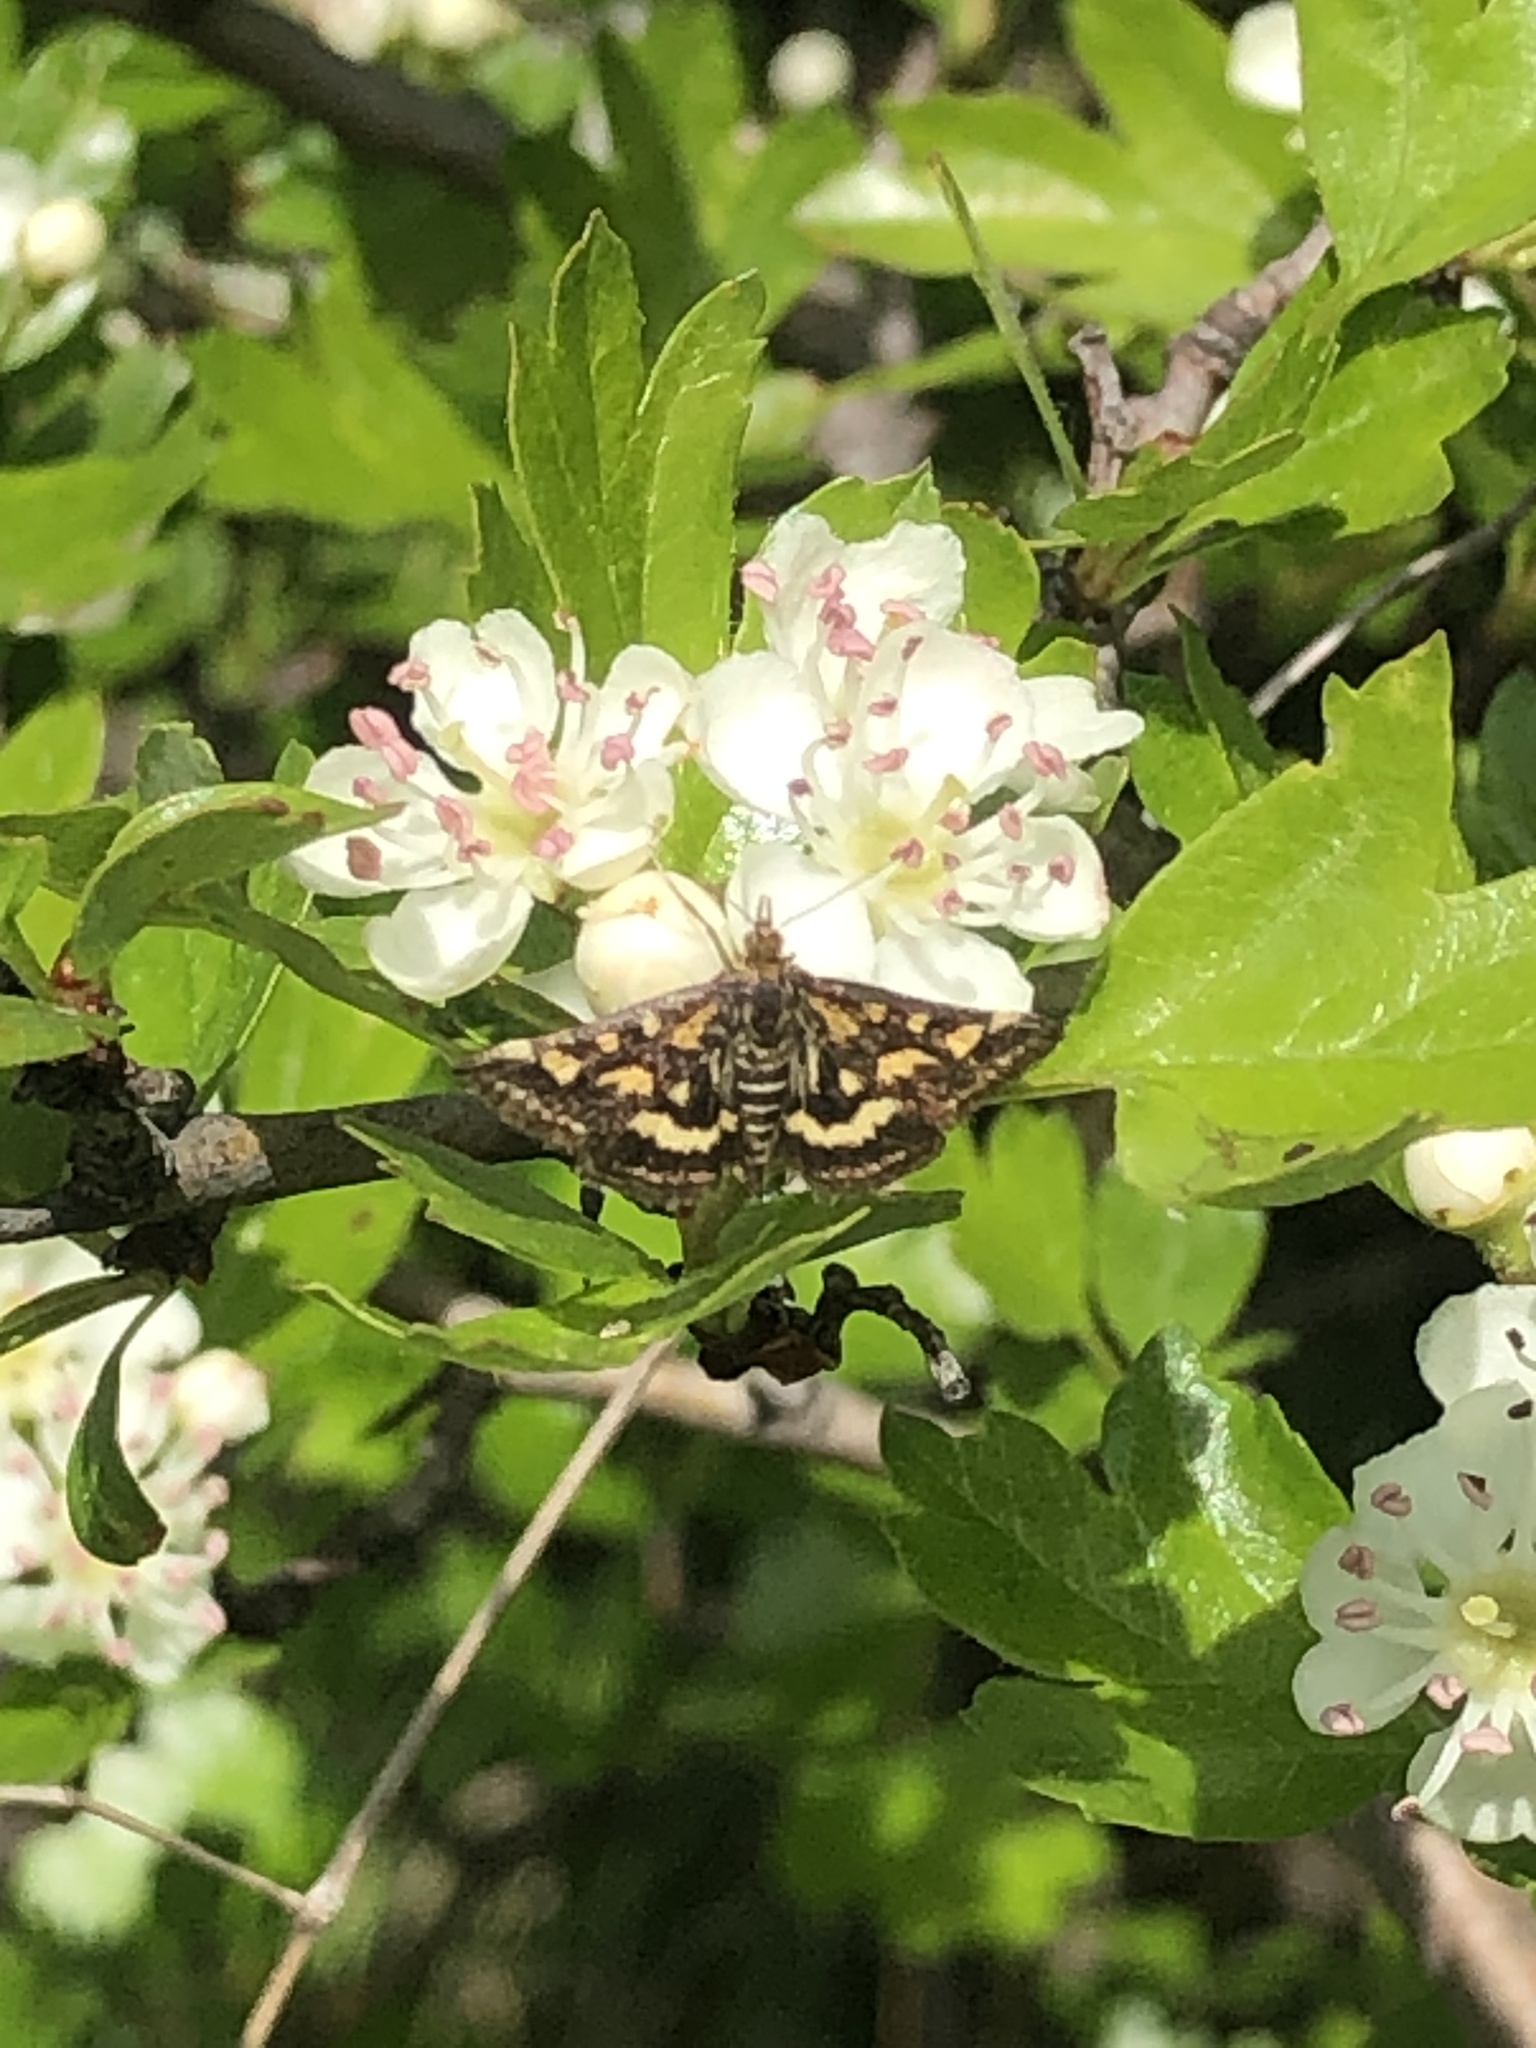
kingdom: Animalia
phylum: Arthropoda
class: Insecta
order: Lepidoptera
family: Crambidae
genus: Pyrausta
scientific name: Pyrausta purpuralis
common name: Common purple & gold
